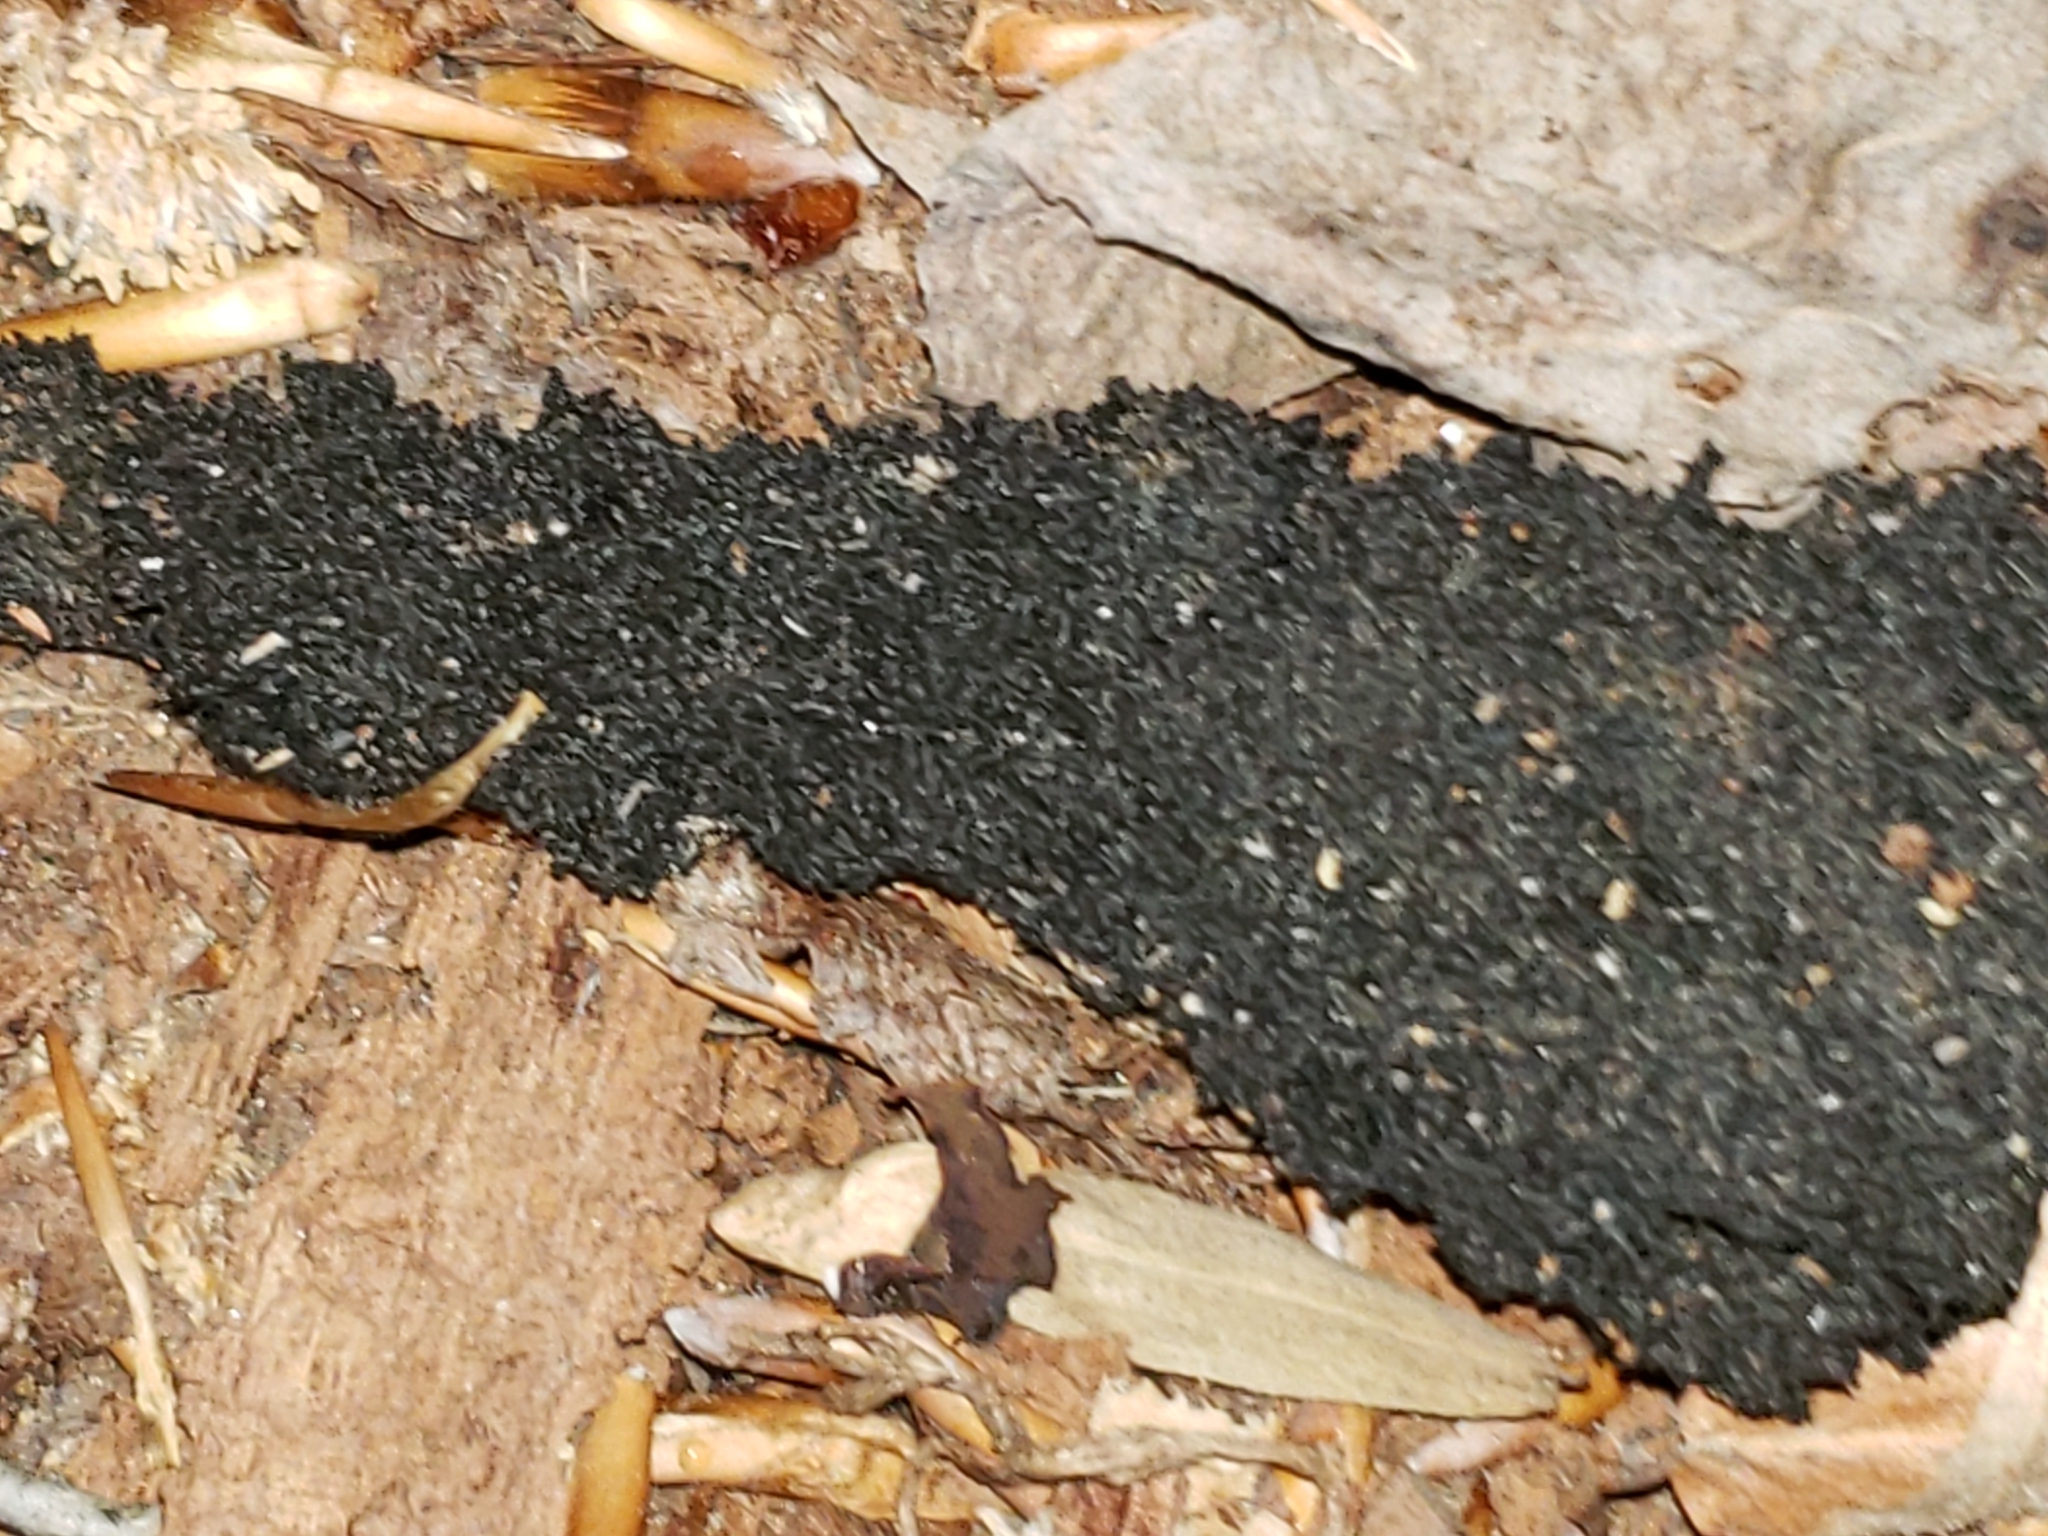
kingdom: Fungi
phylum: Ascomycota
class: Dothideomycetes
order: Capnodiales
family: Capnodiaceae
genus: Scorias
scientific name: Scorias spongiosa
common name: Black sooty mold
